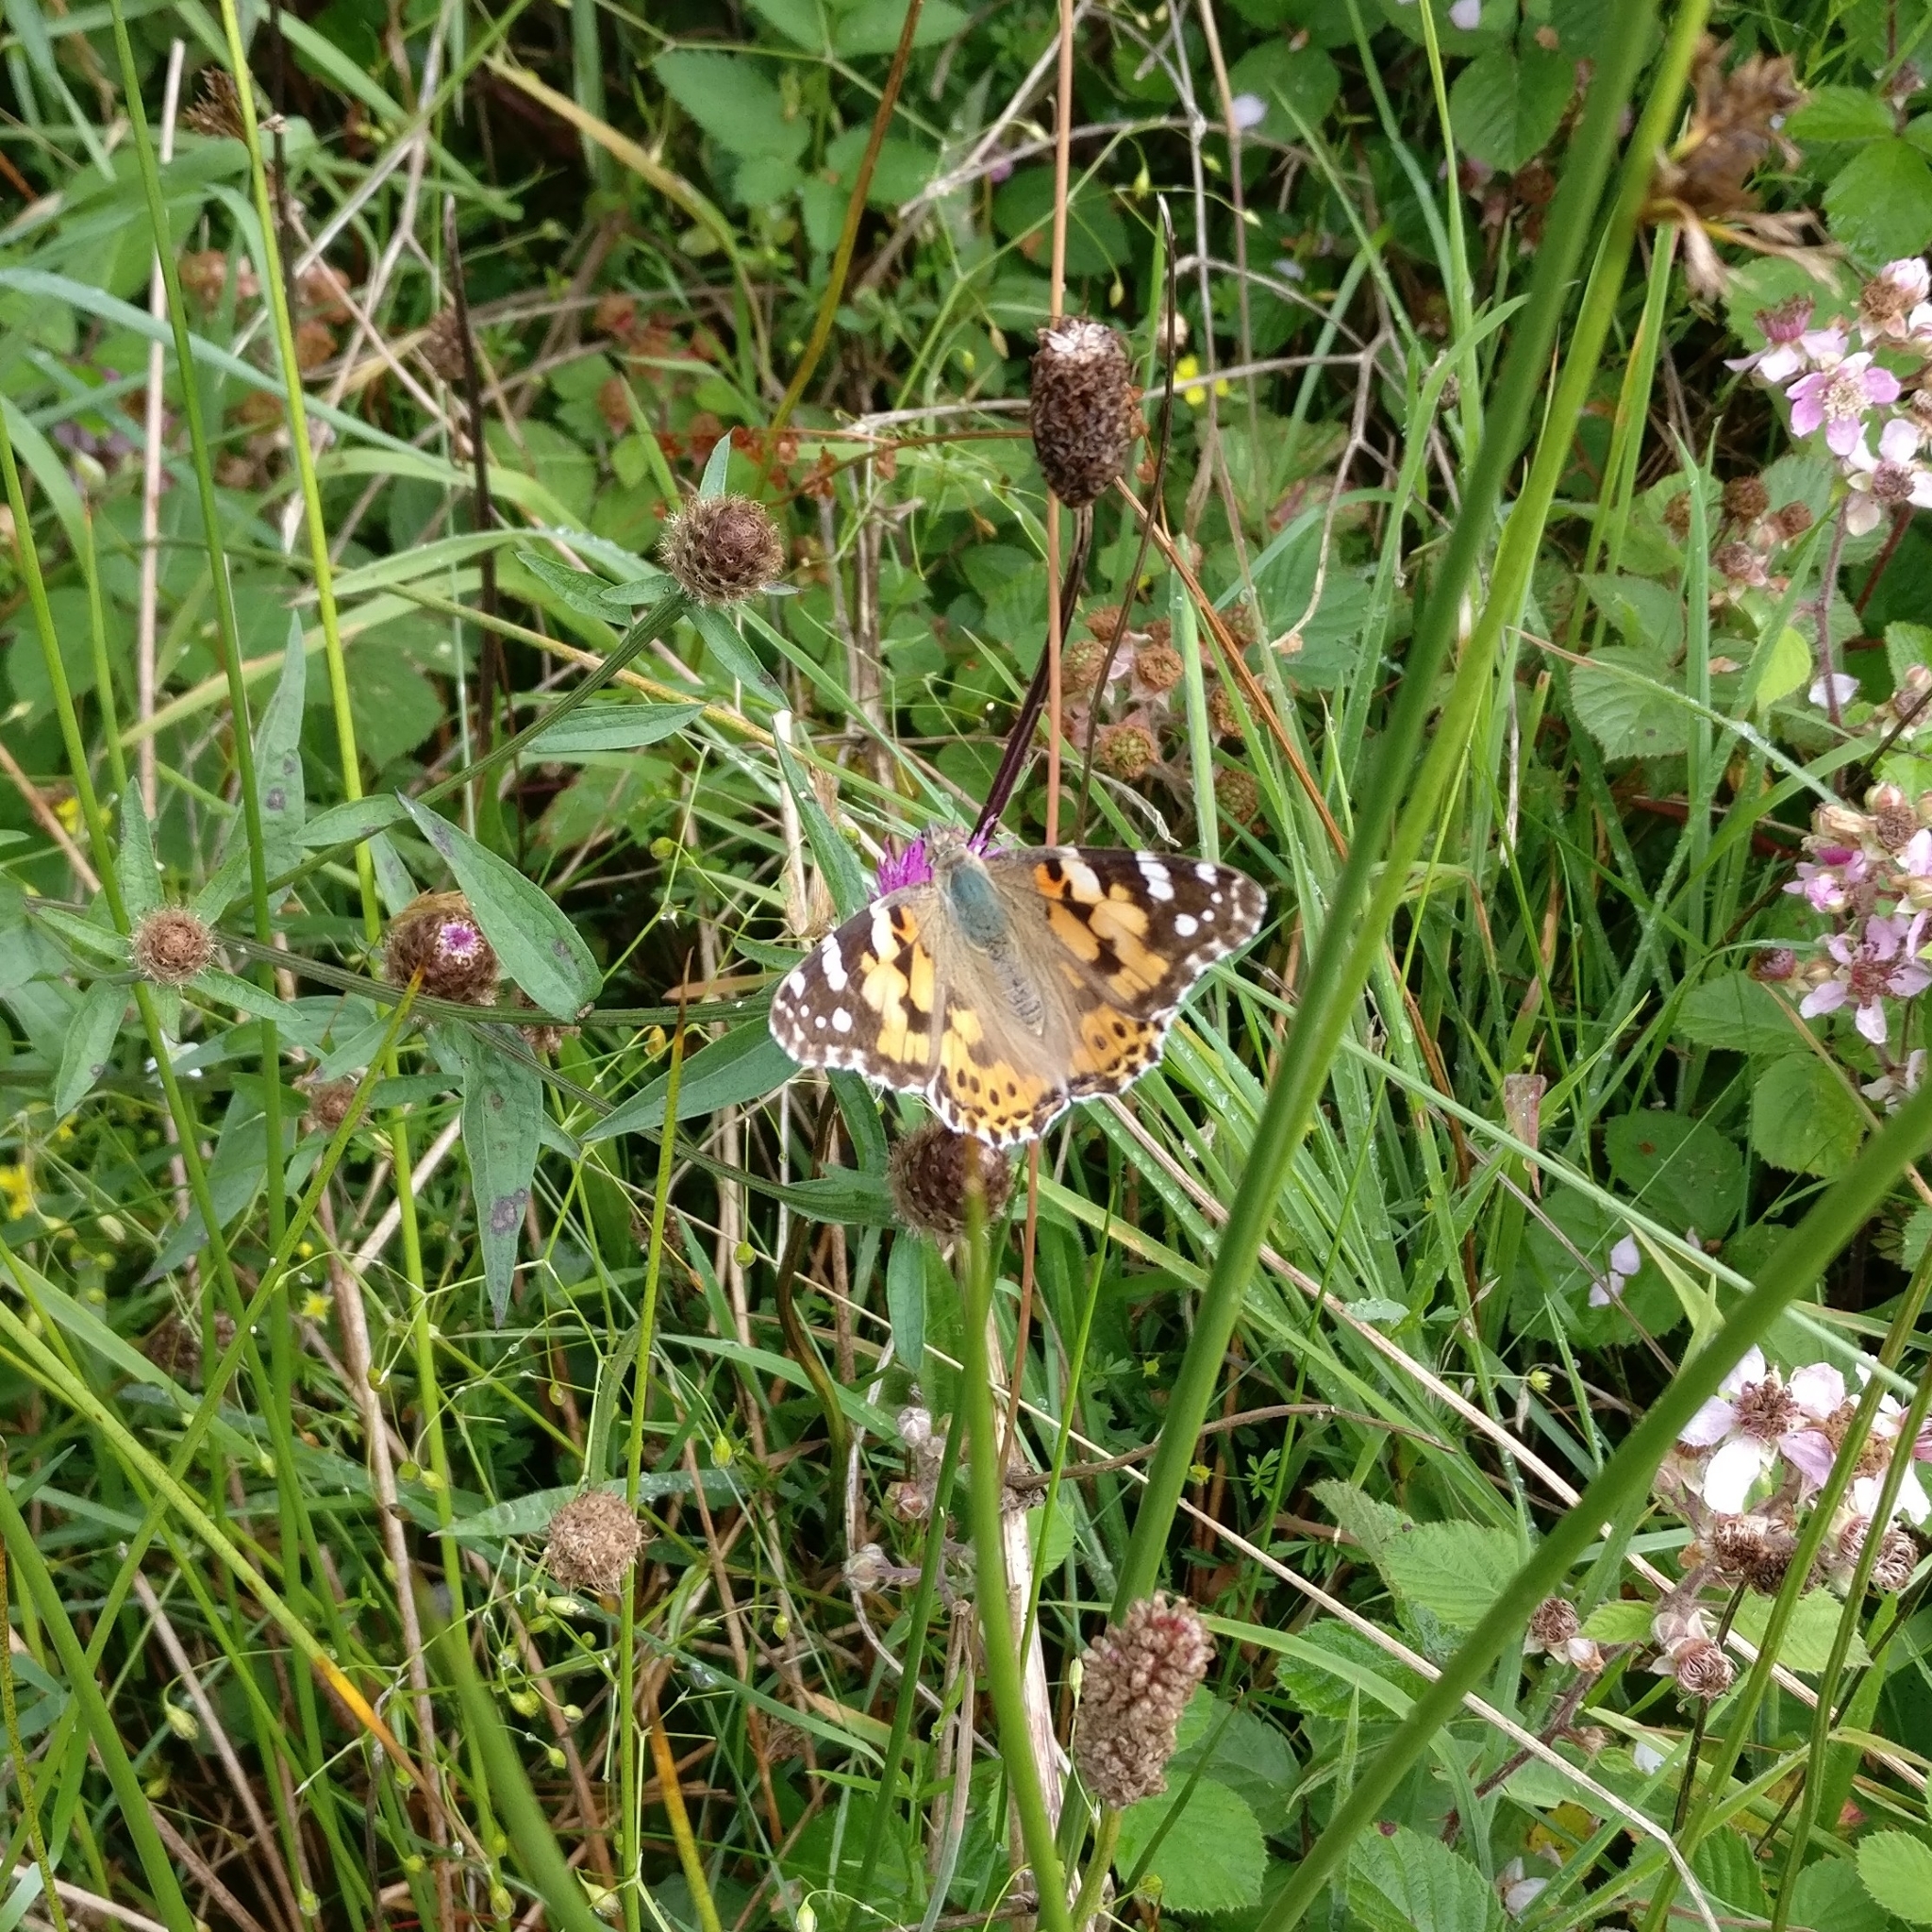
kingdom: Animalia
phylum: Arthropoda
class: Insecta
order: Lepidoptera
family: Nymphalidae
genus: Vanessa
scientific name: Vanessa cardui
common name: Painted lady
